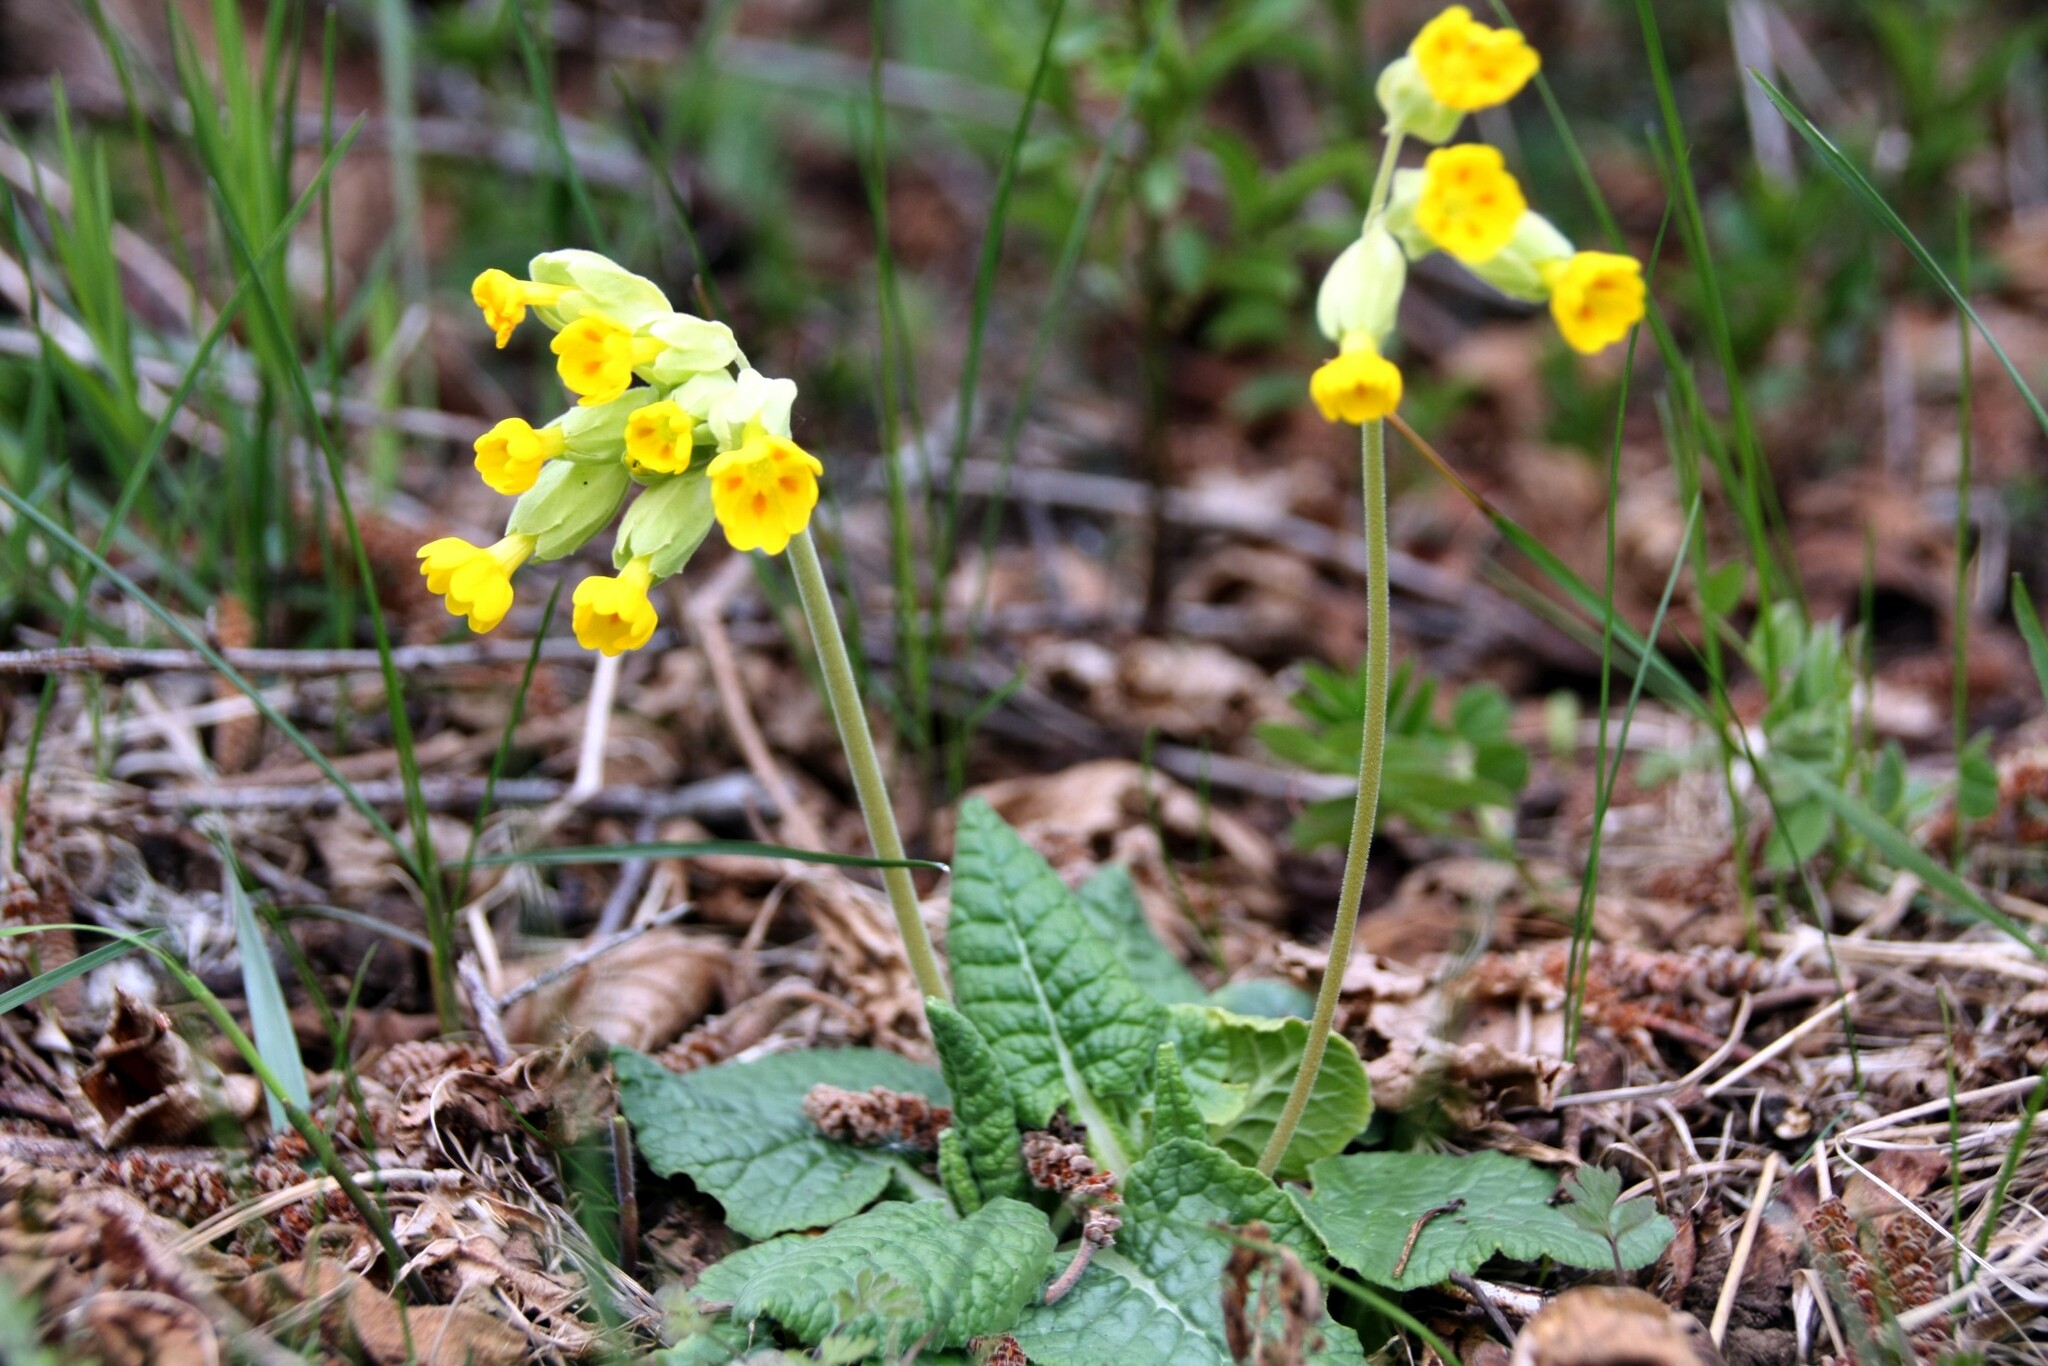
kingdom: Plantae
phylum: Tracheophyta
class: Magnoliopsida
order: Ericales
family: Primulaceae
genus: Primula
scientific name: Primula veris
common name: Cowslip
